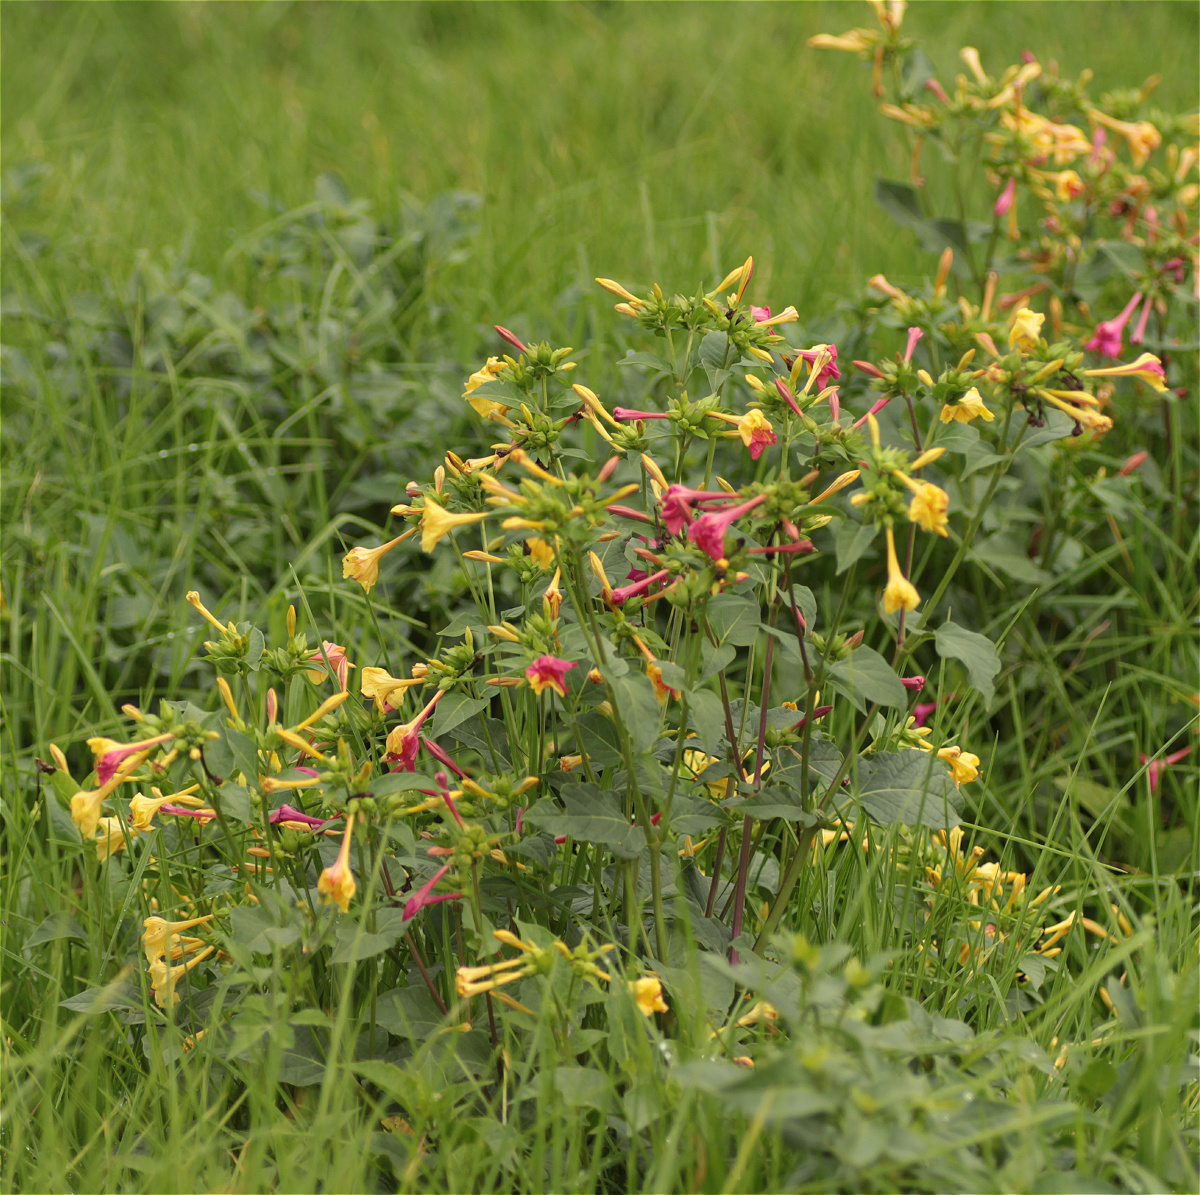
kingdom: Plantae
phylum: Tracheophyta
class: Magnoliopsida
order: Caryophyllales
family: Nyctaginaceae
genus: Mirabilis
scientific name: Mirabilis jalapa
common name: Marvel-of-peru
